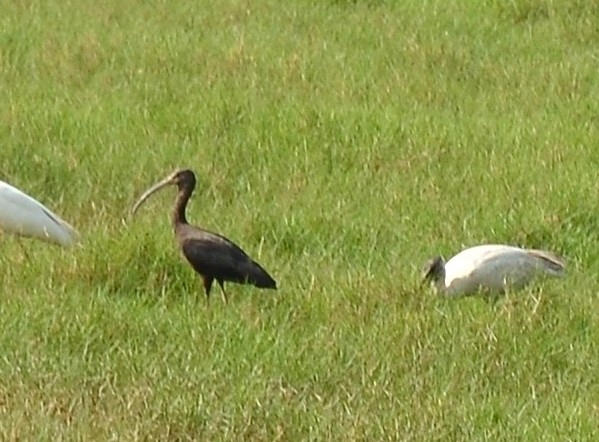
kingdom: Animalia
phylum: Chordata
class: Aves
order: Pelecaniformes
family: Threskiornithidae
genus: Plegadis
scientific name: Plegadis falcinellus
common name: Glossy ibis
